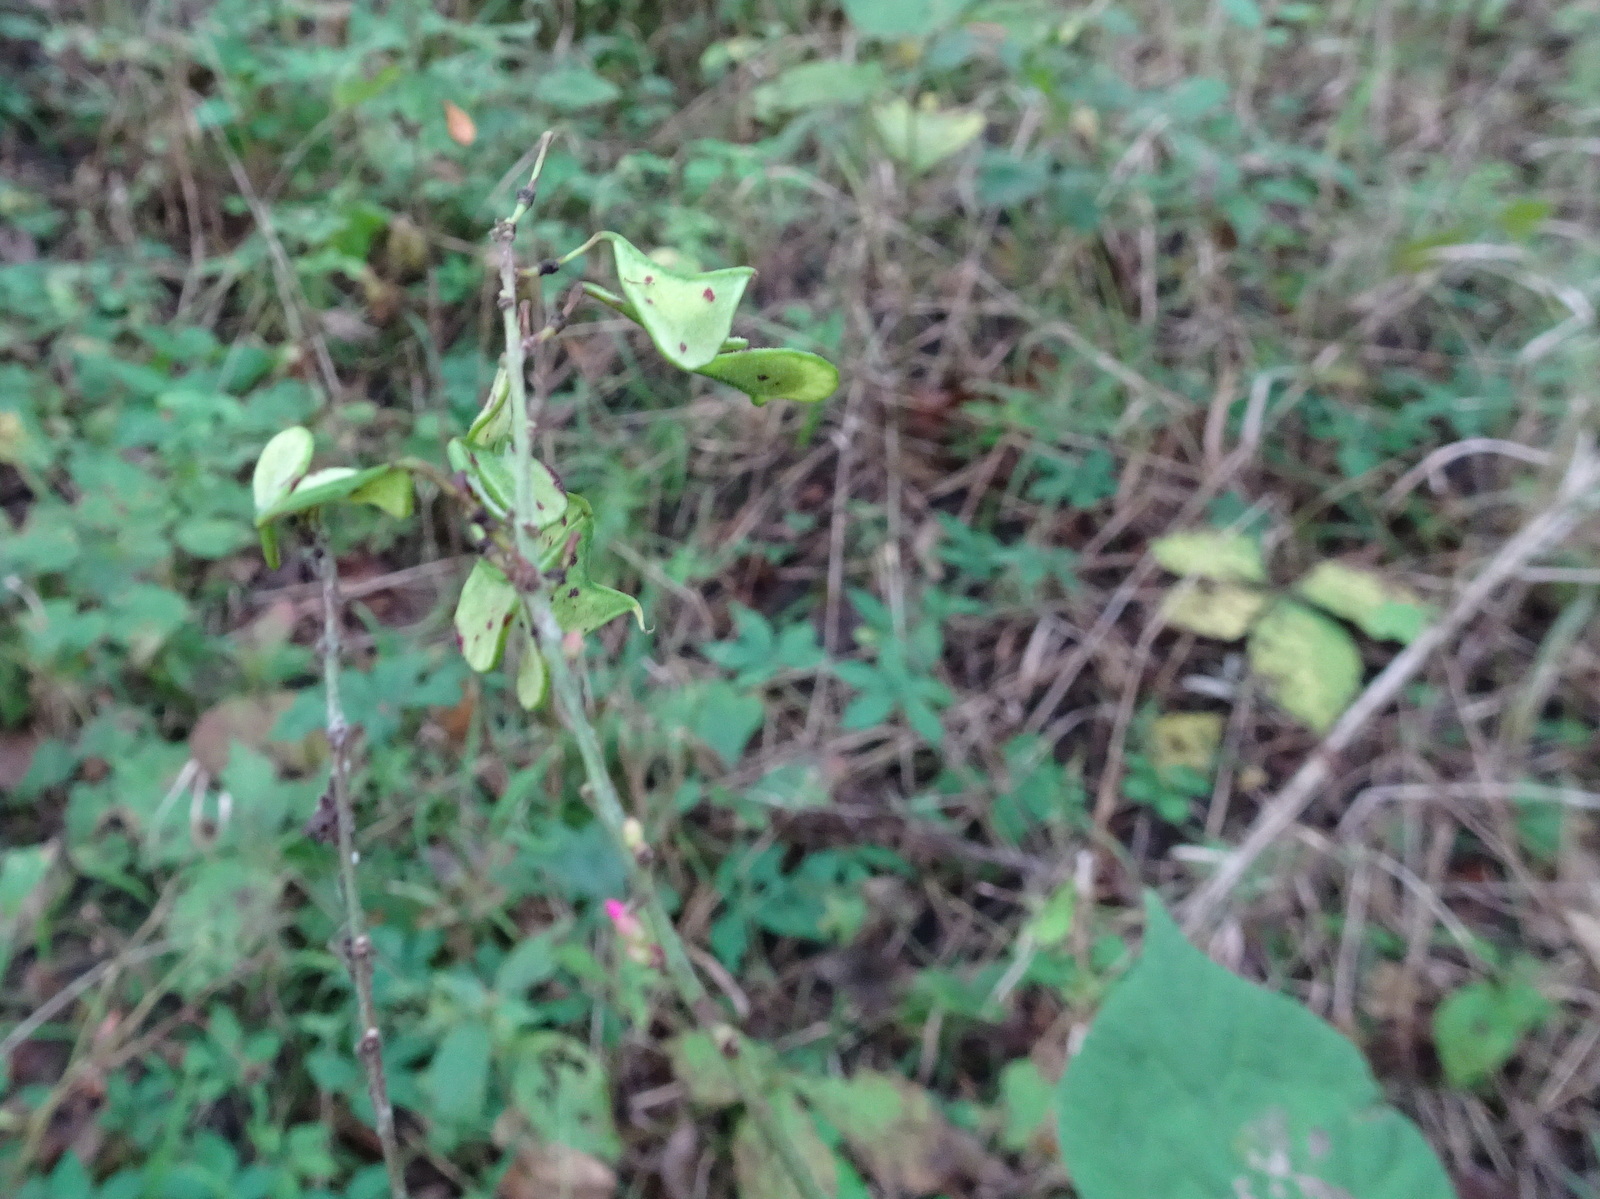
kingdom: Plantae
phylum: Tracheophyta
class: Magnoliopsida
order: Fabales
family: Fabaceae
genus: Hylodesmum
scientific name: Hylodesmum glutinosum
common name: Clustered-leaved tick-trefoil
